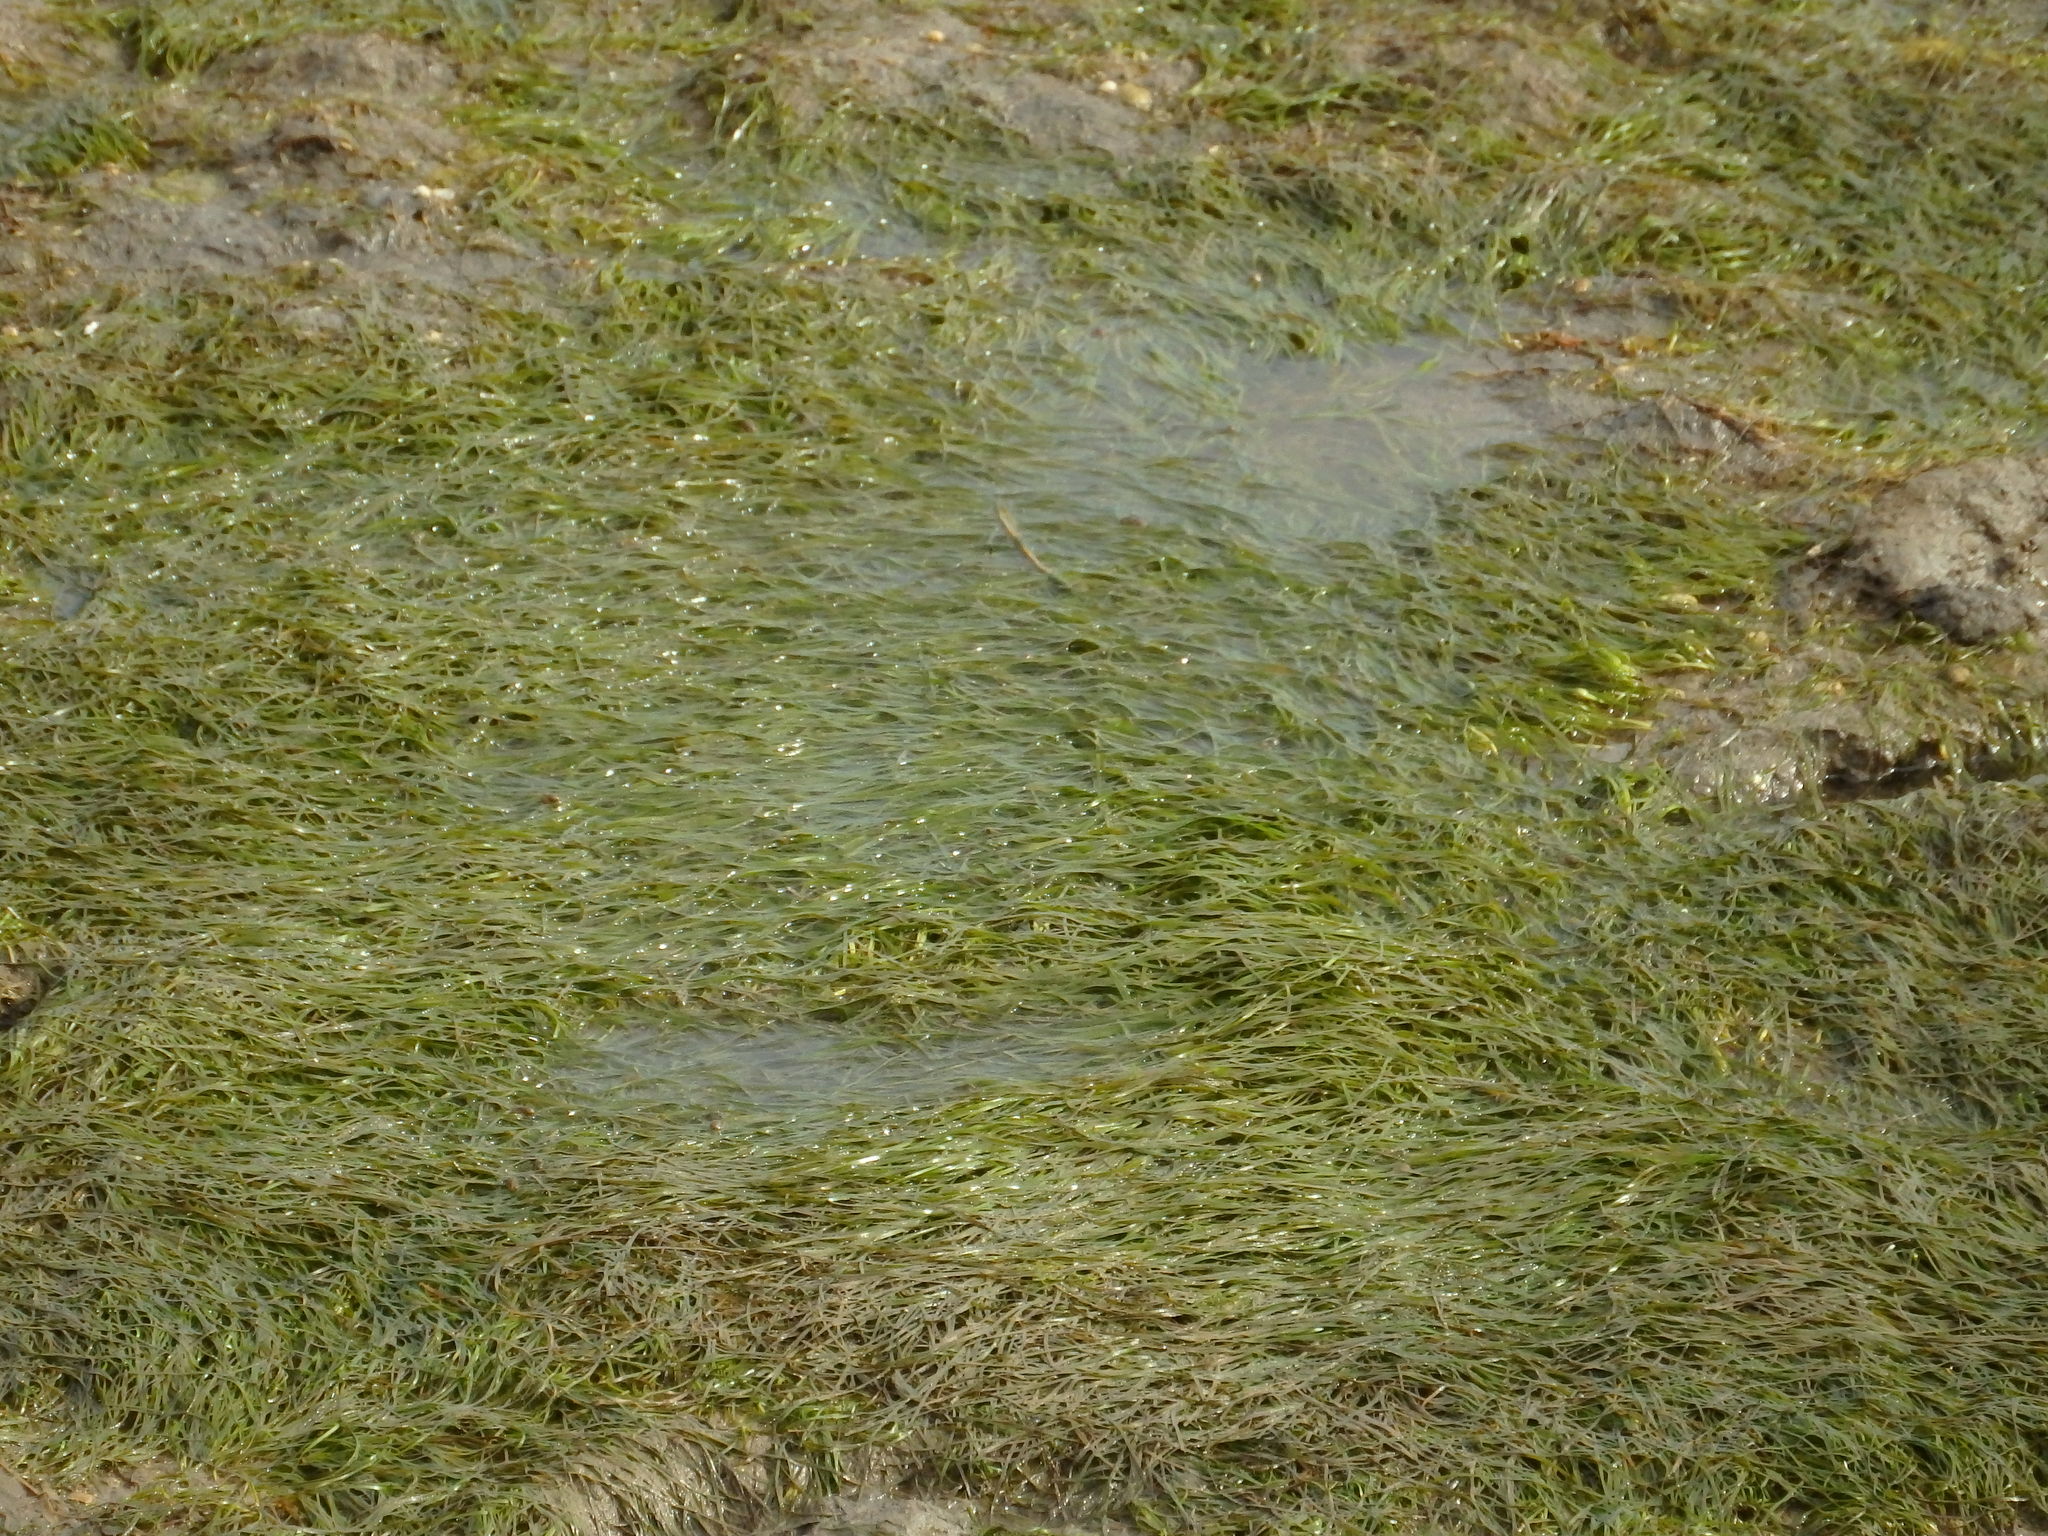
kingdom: Plantae
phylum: Tracheophyta
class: Liliopsida
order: Alismatales
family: Zosteraceae
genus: Zostera
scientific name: Zostera noltii
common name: Dwarf eelgrass
